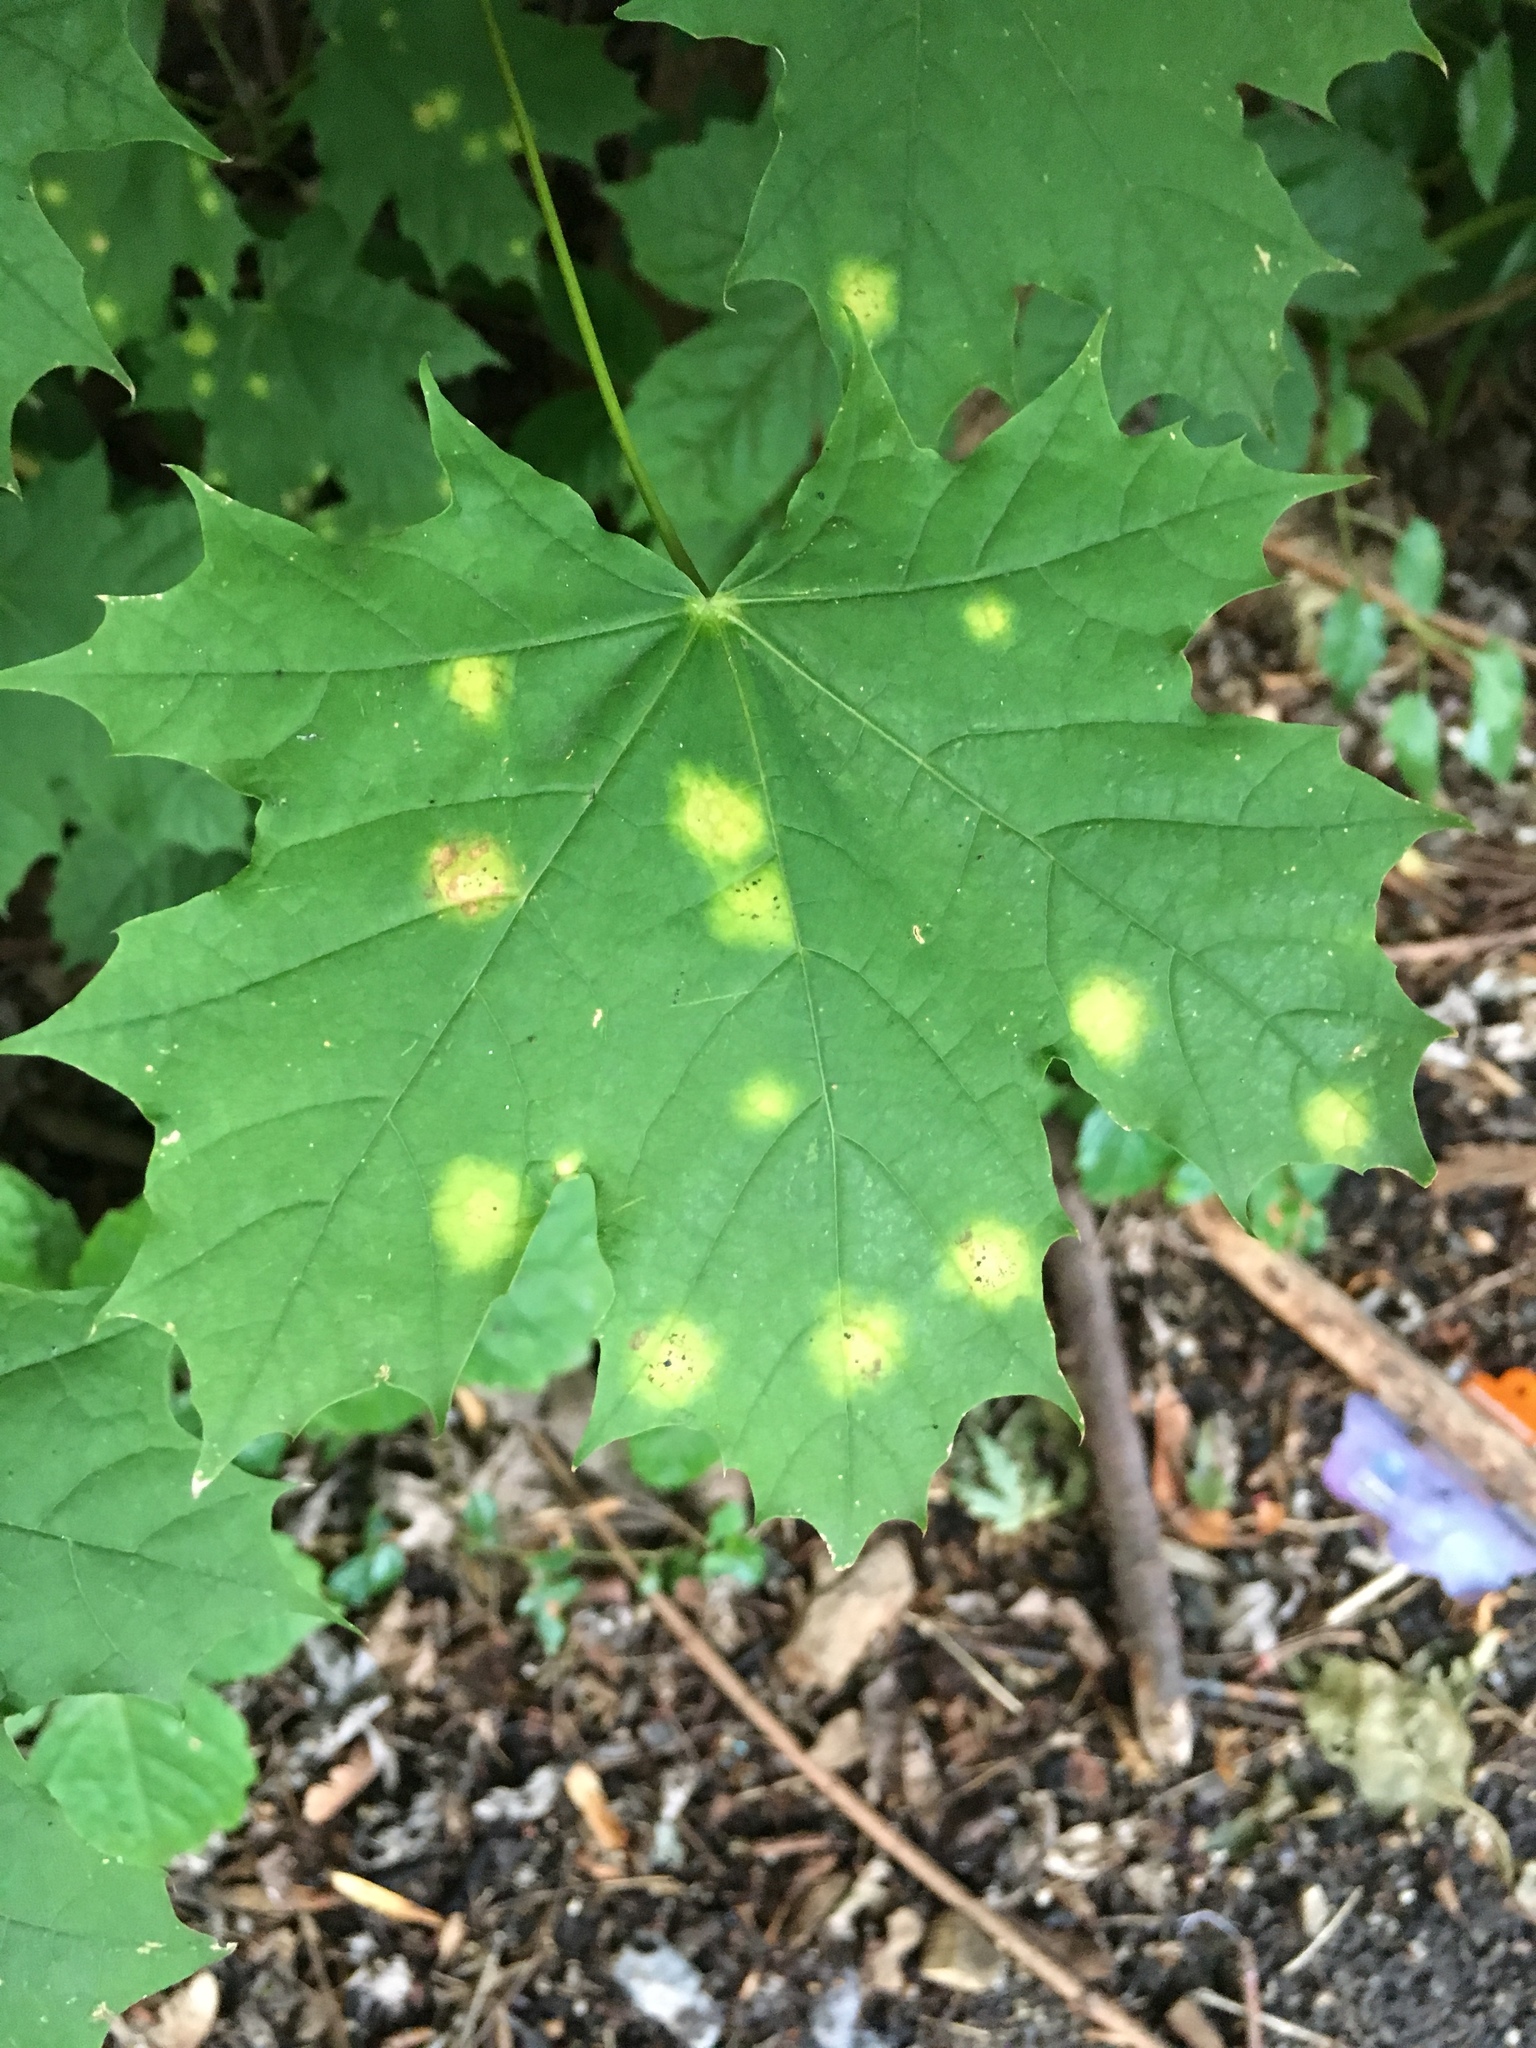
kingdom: Fungi
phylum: Ascomycota
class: Leotiomycetes
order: Rhytismatales
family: Rhytismataceae
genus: Rhytisma
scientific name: Rhytisma acerinum
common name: European tar spot
